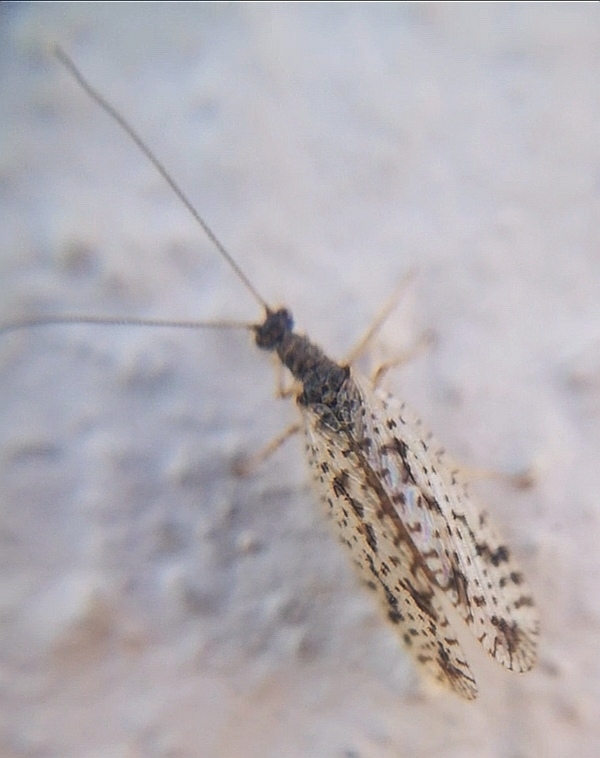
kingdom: Animalia
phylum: Arthropoda
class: Insecta
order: Neuroptera
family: Hemerobiidae
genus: Micromus
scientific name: Micromus variegatus
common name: Brown lacewing
